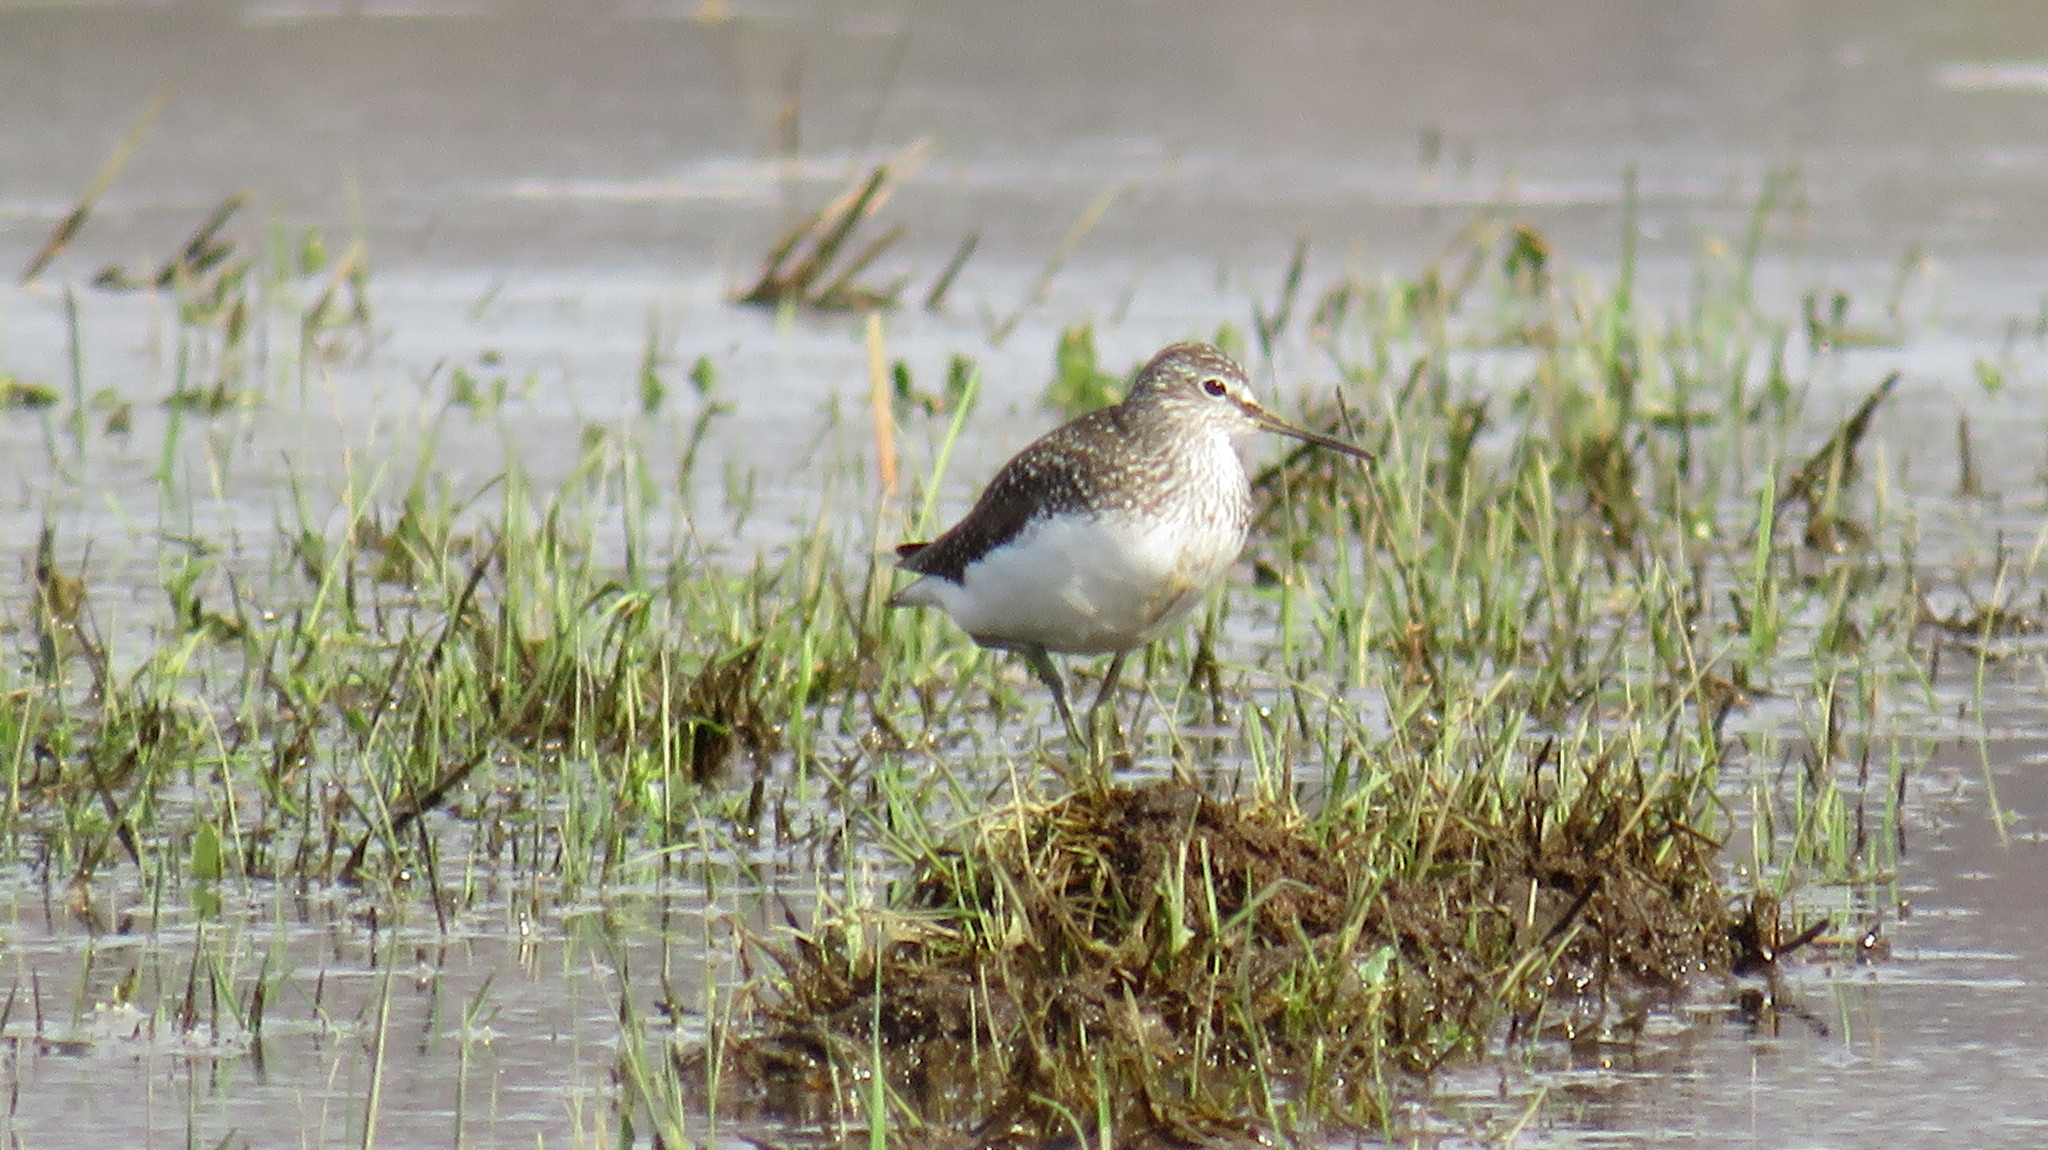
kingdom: Animalia
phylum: Chordata
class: Aves
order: Charadriiformes
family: Scolopacidae
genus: Tringa
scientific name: Tringa ochropus
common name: Green sandpiper
